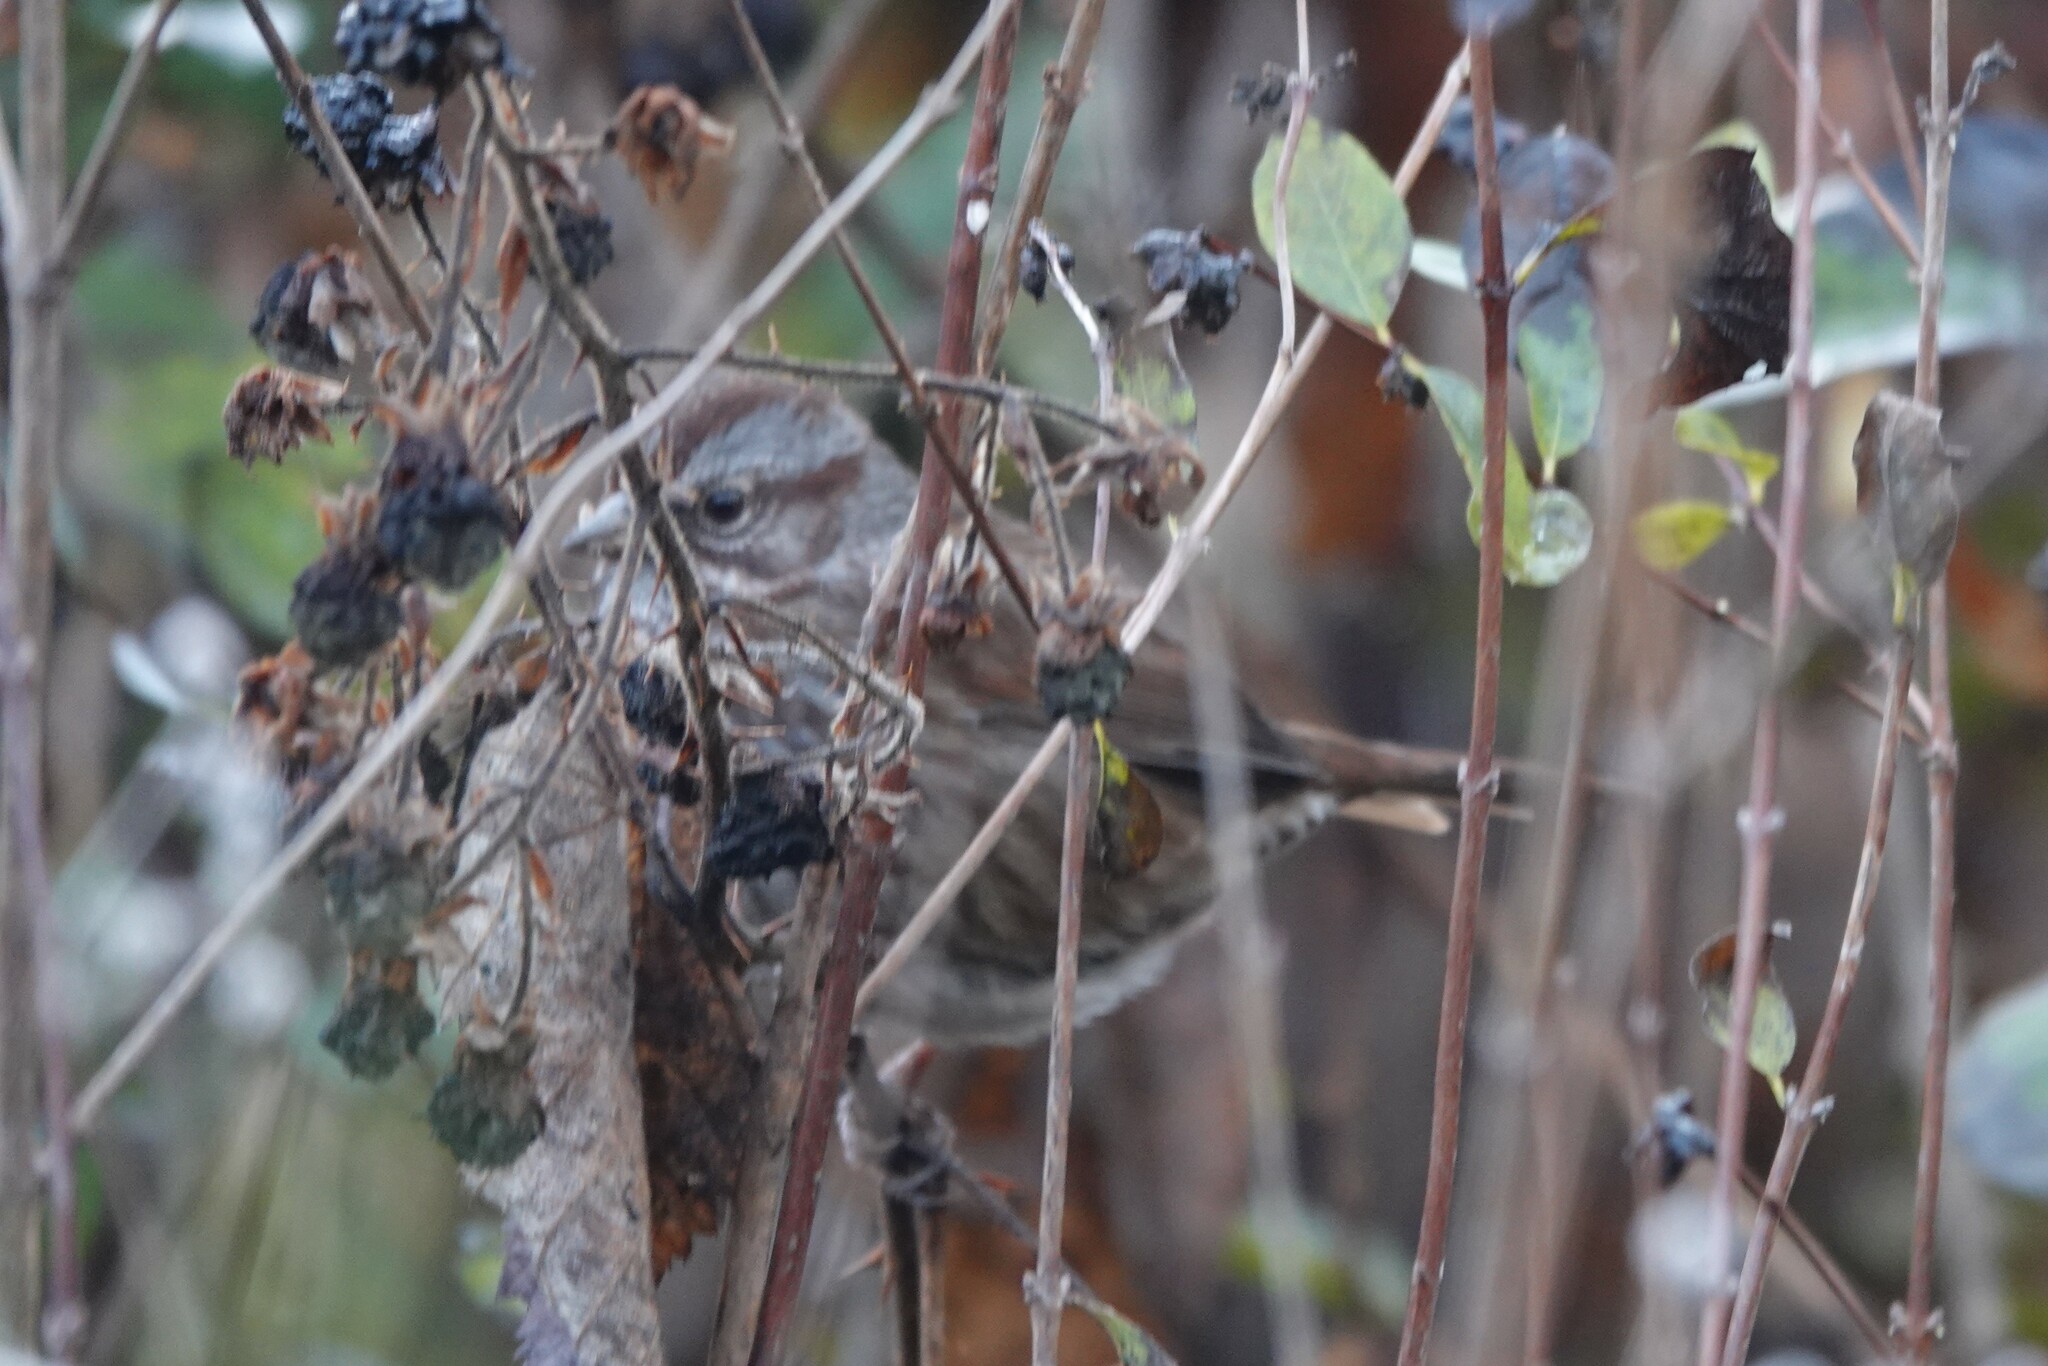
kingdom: Animalia
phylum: Chordata
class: Aves
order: Passeriformes
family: Passerellidae
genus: Melospiza
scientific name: Melospiza melodia
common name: Song sparrow
